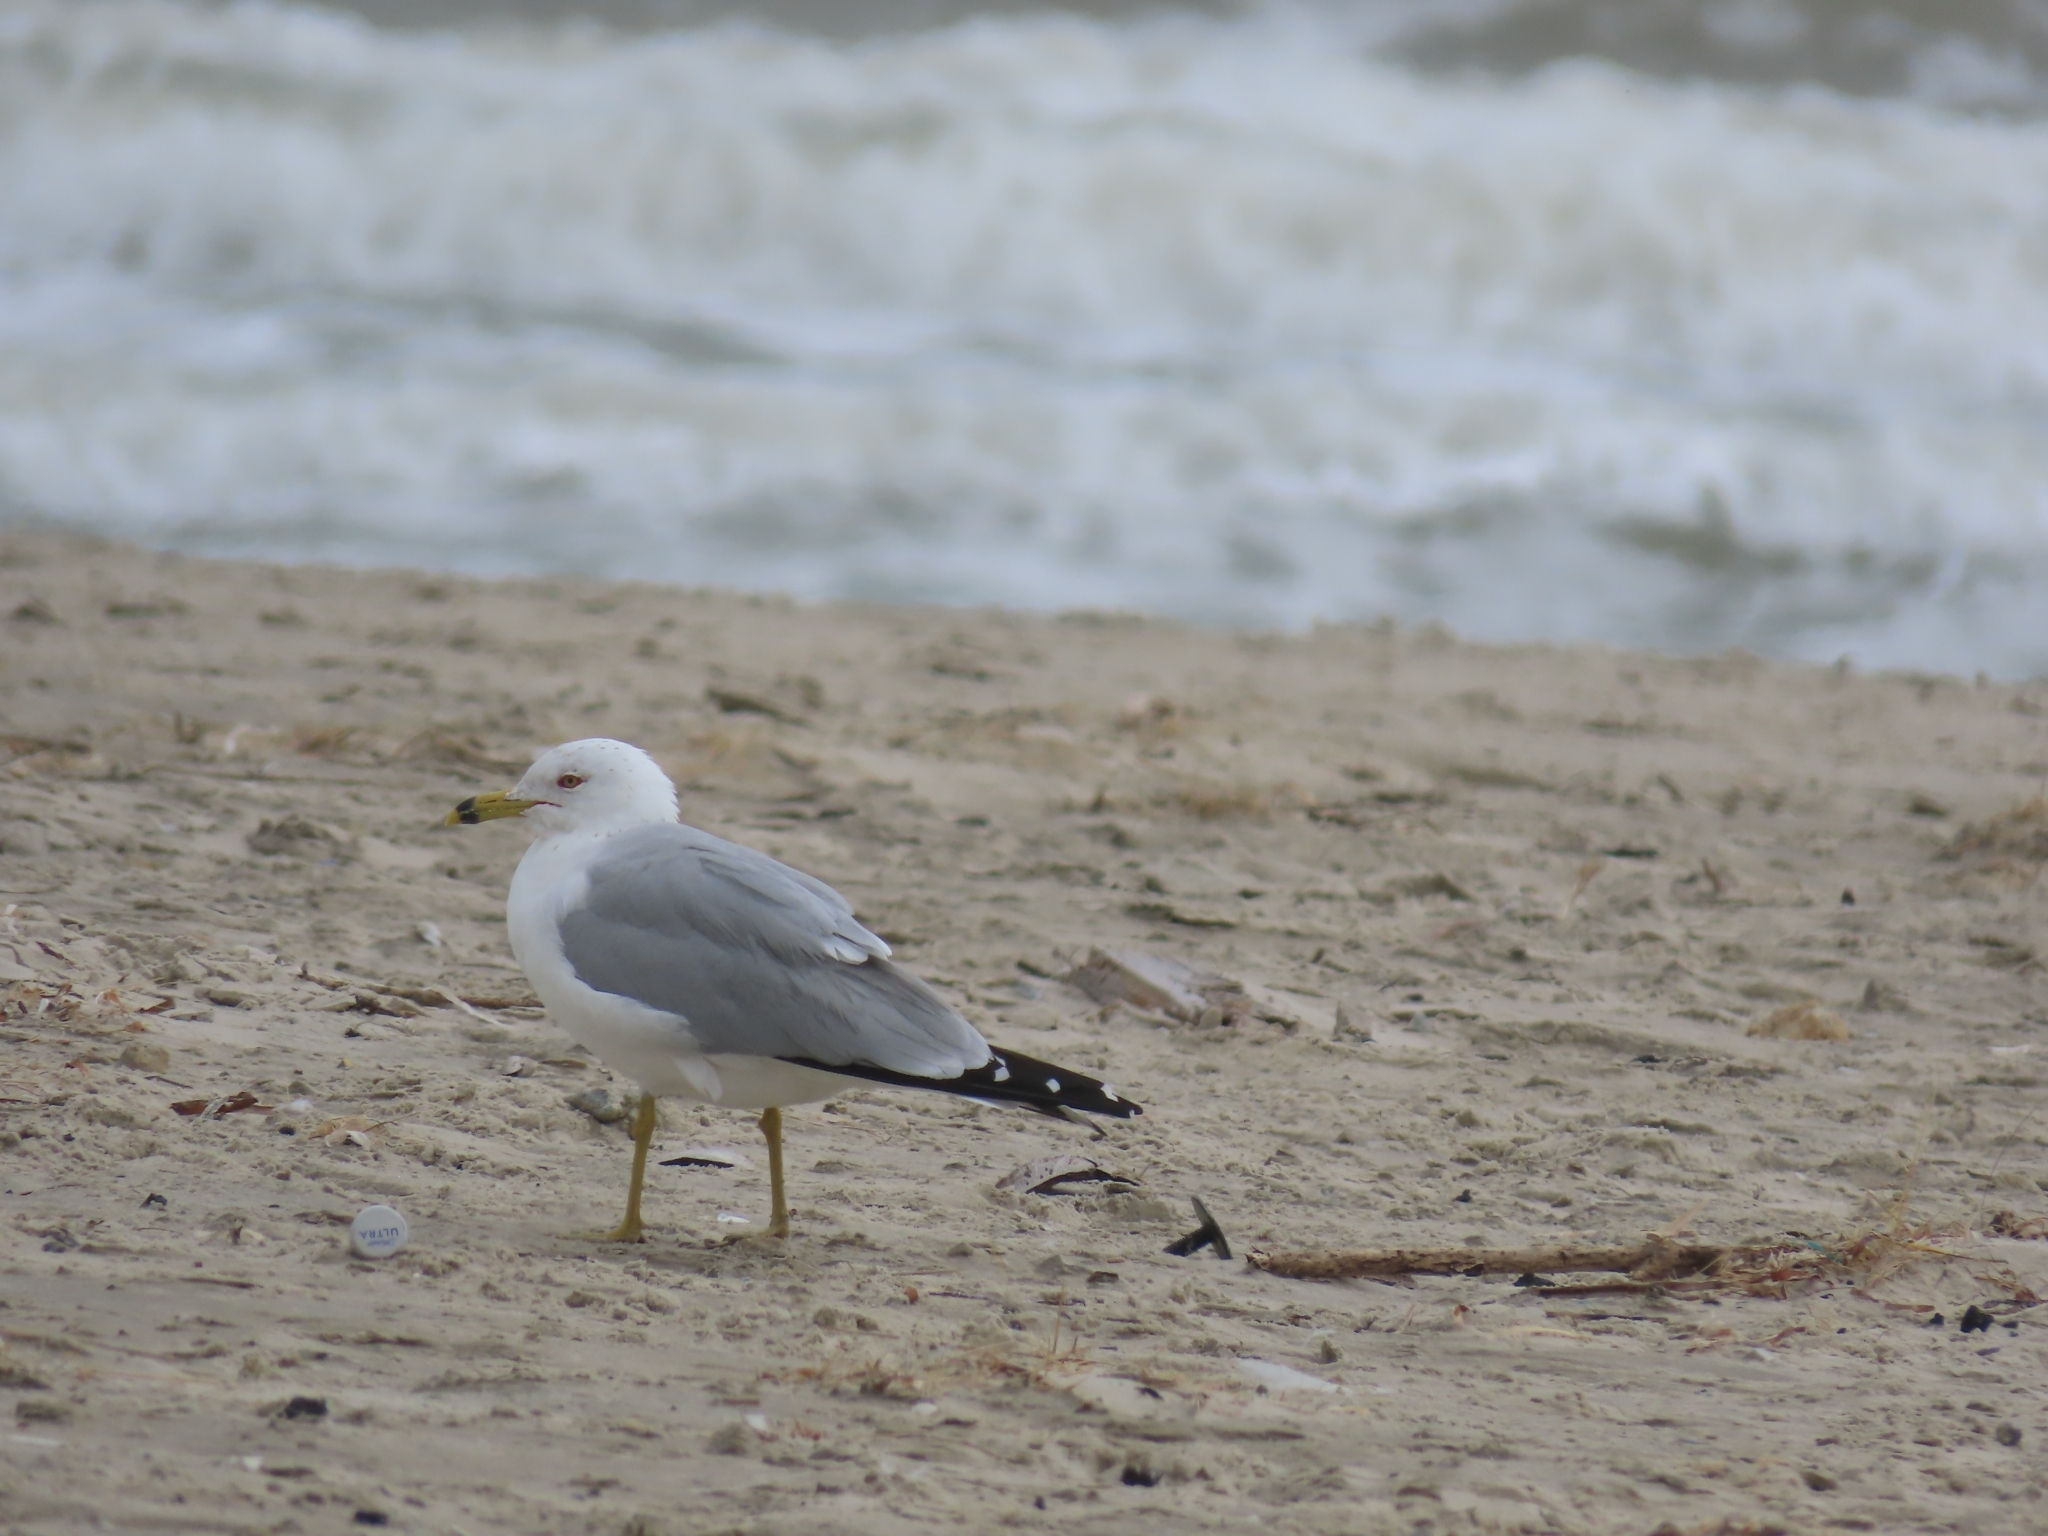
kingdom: Animalia
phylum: Chordata
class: Aves
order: Charadriiformes
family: Laridae
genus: Larus
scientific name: Larus delawarensis
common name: Ring-billed gull
